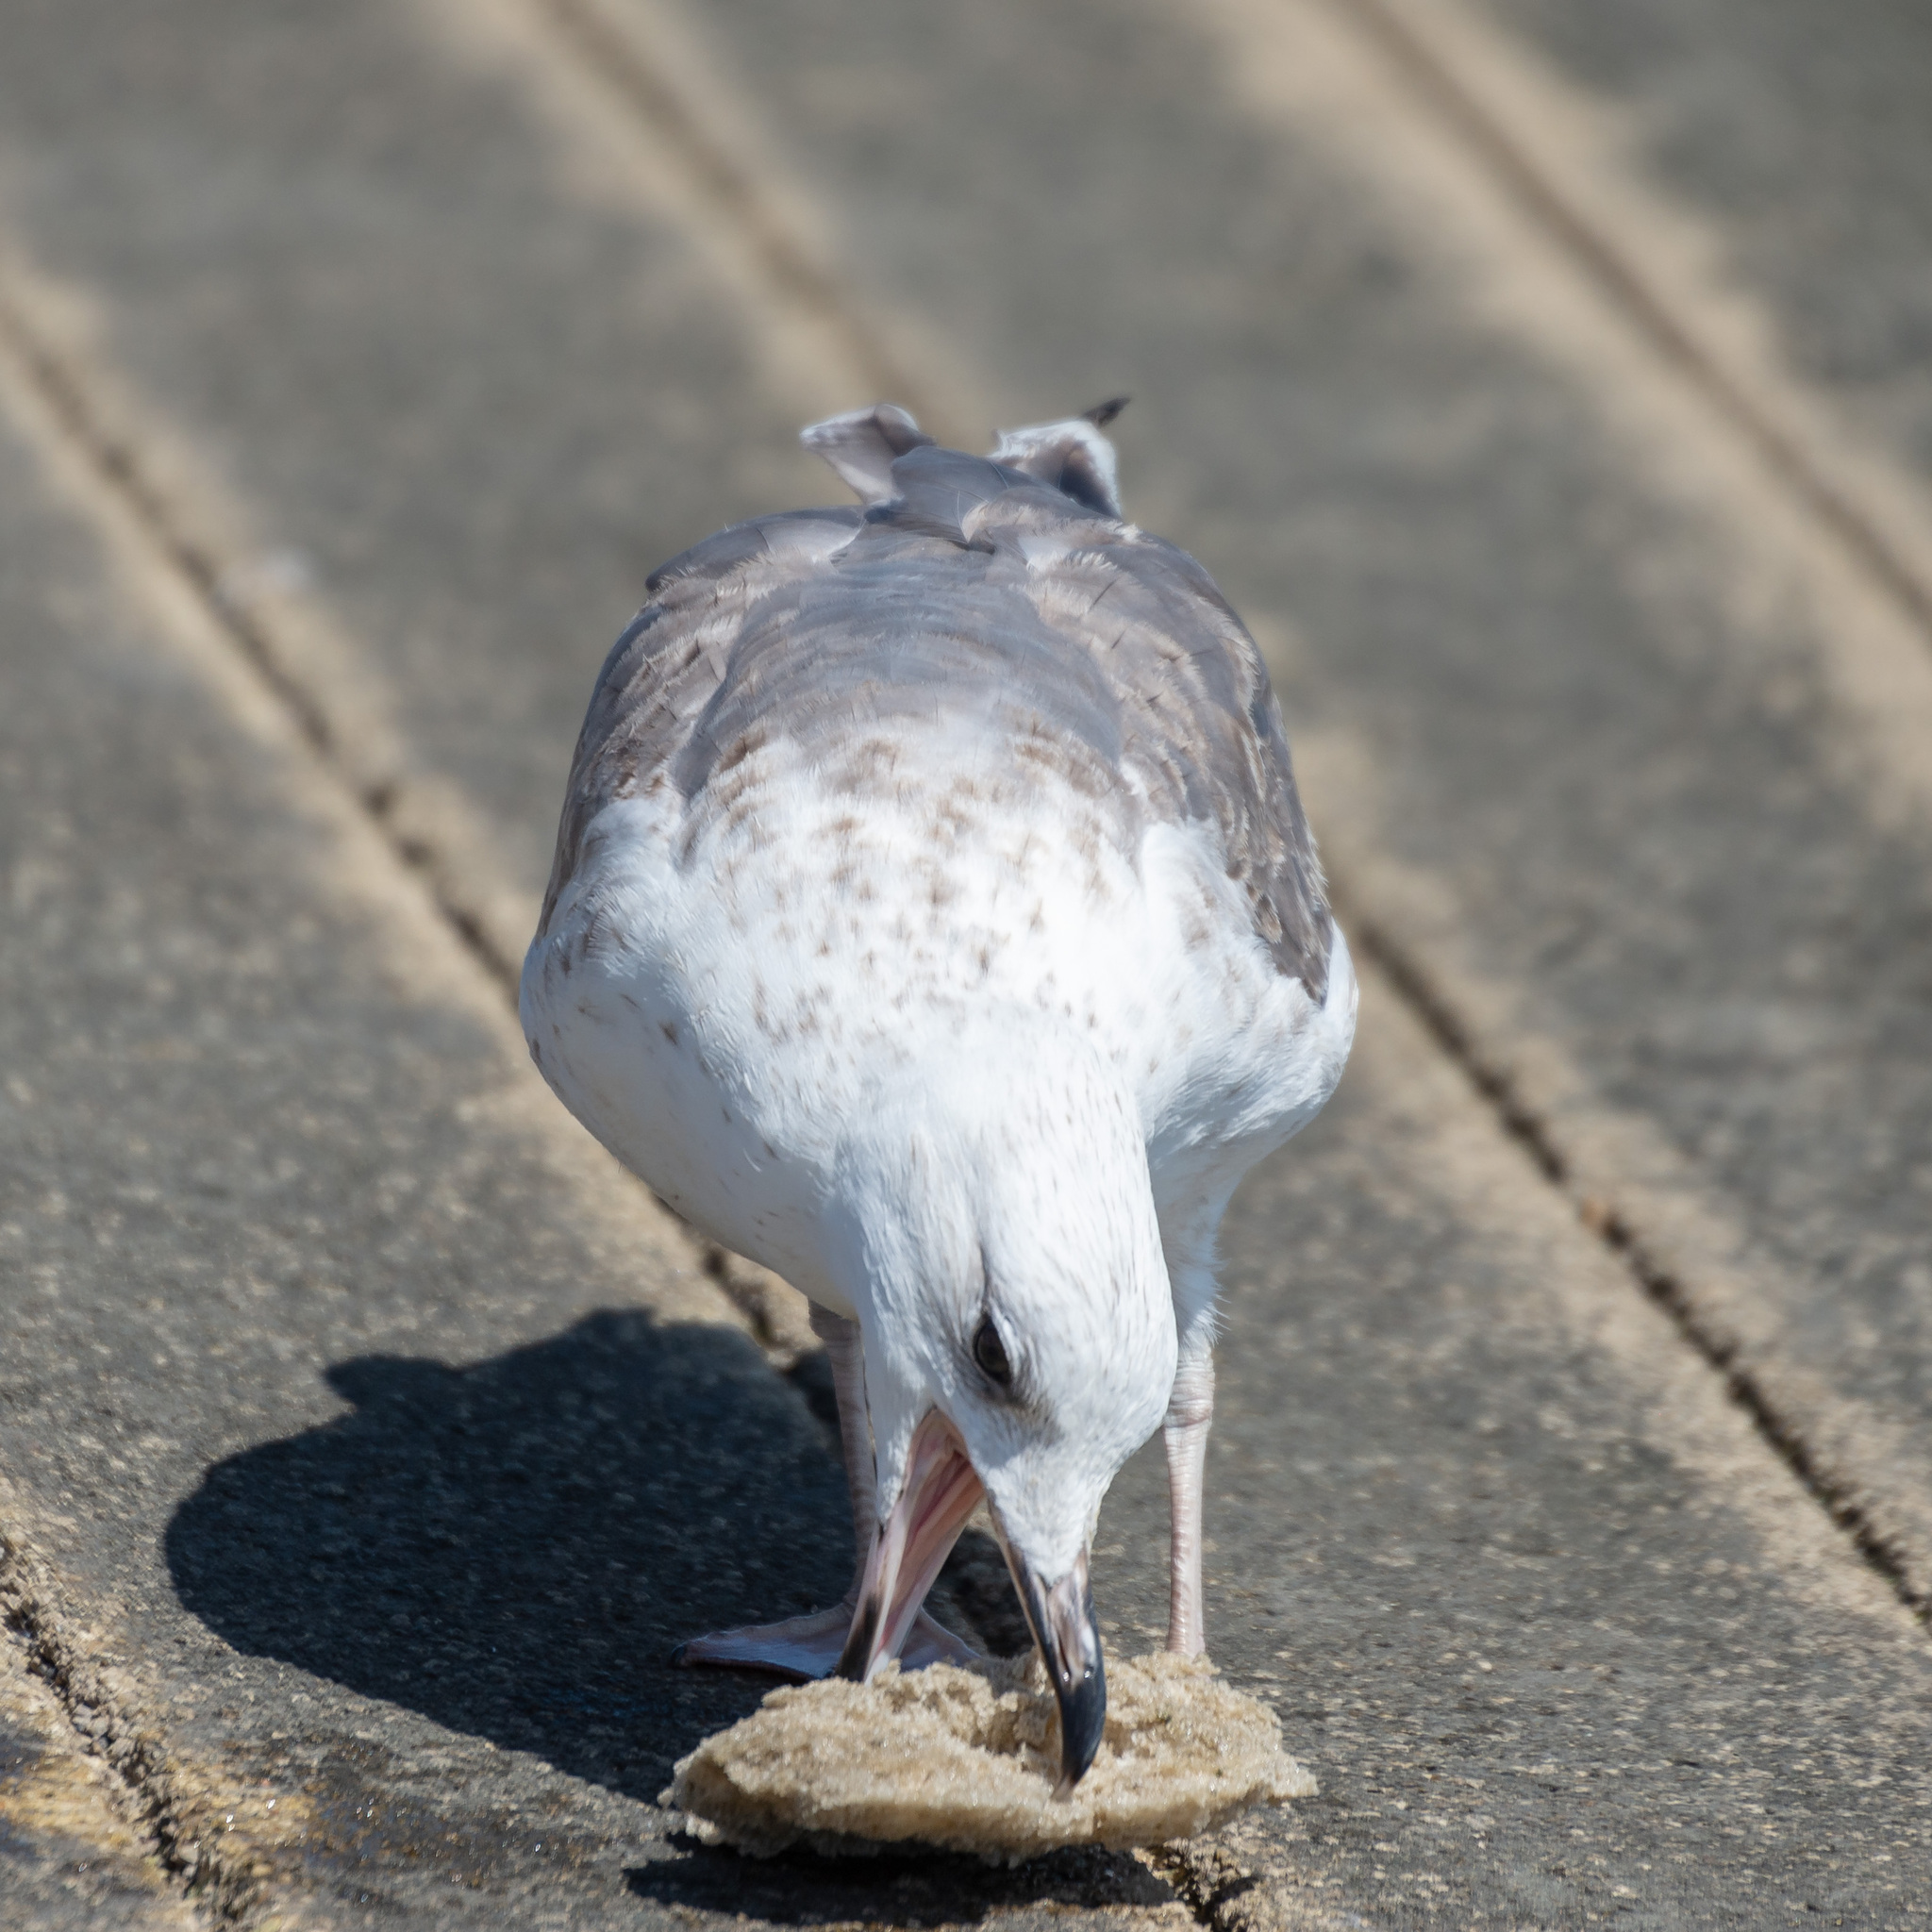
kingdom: Animalia
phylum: Chordata
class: Aves
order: Charadriiformes
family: Laridae
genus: Larus
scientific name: Larus michahellis
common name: Yellow-legged gull
